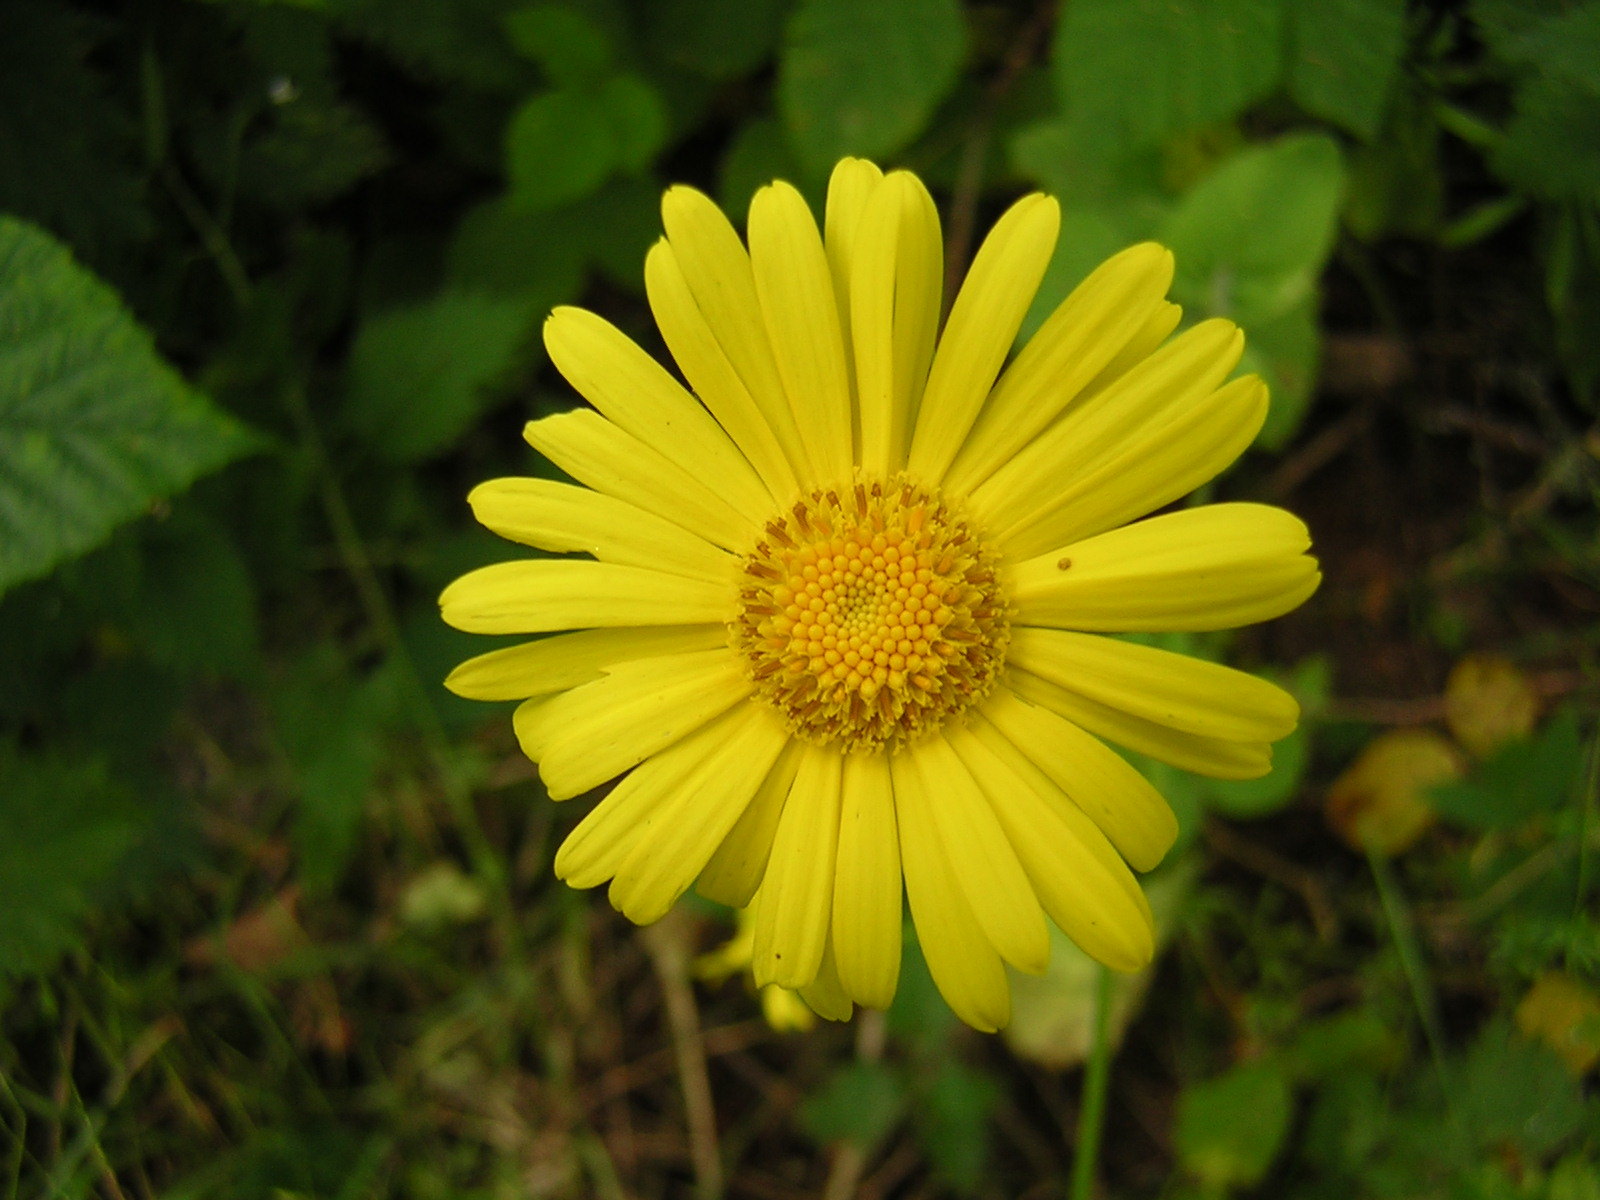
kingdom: Plantae
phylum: Tracheophyta
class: Magnoliopsida
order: Asterales
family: Asteraceae
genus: Doronicum
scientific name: Doronicum pardalianches
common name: Leopard's-bane
